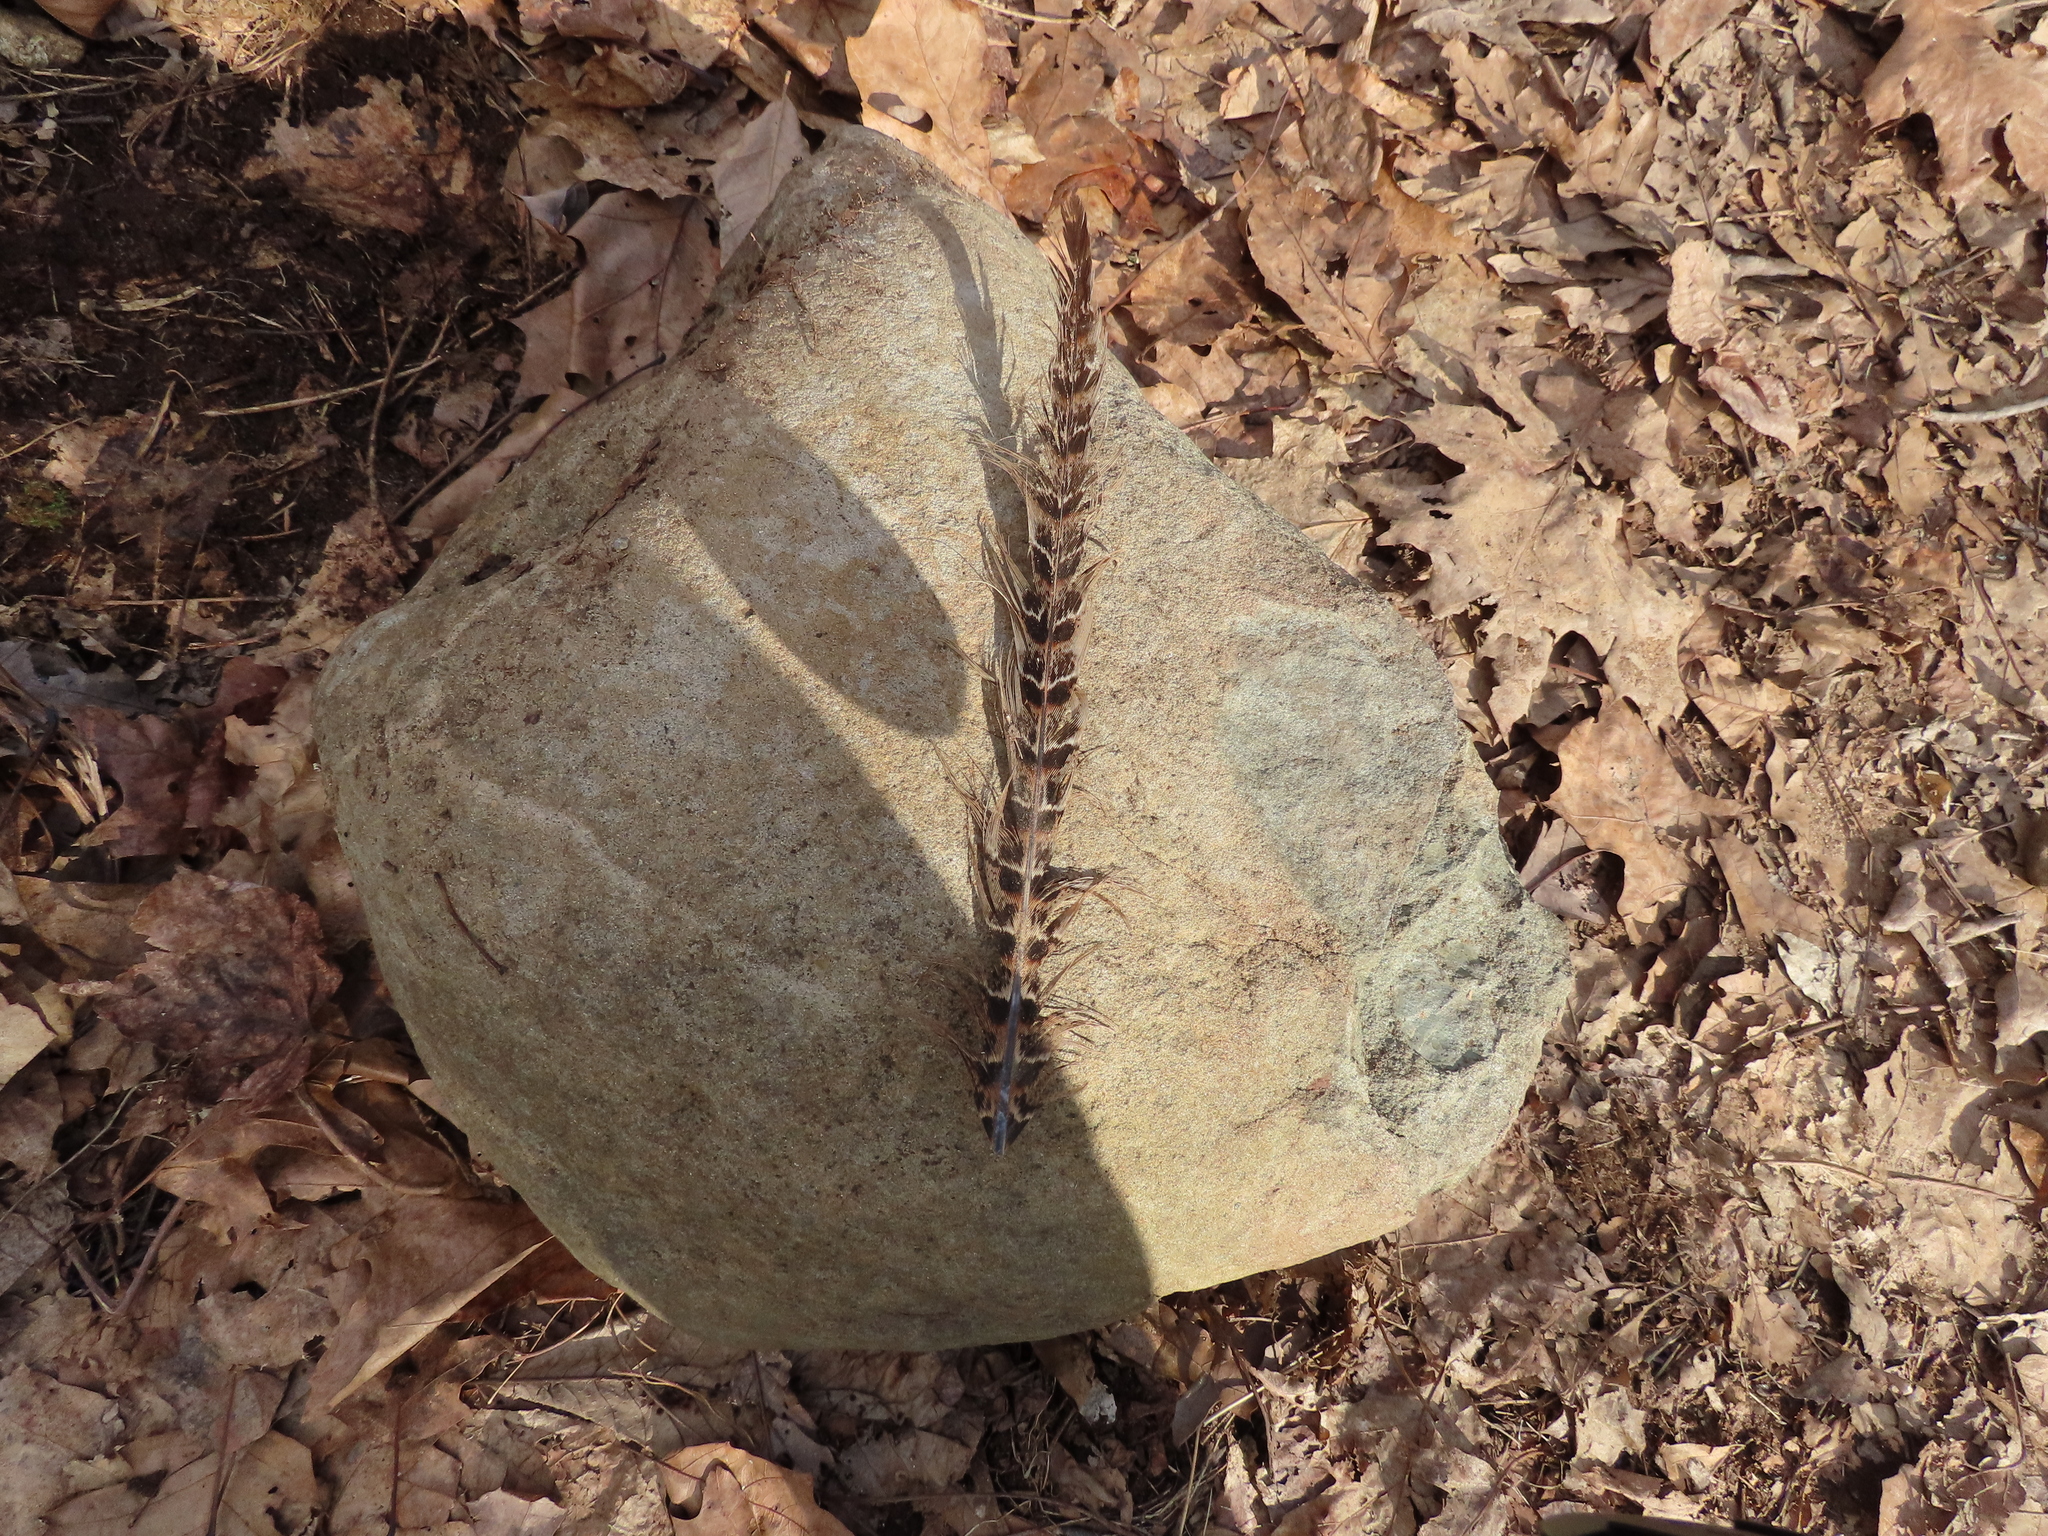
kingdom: Animalia
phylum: Chordata
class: Aves
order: Galliformes
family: Phasianidae
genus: Phasianus
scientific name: Phasianus colchicus
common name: Common pheasant
